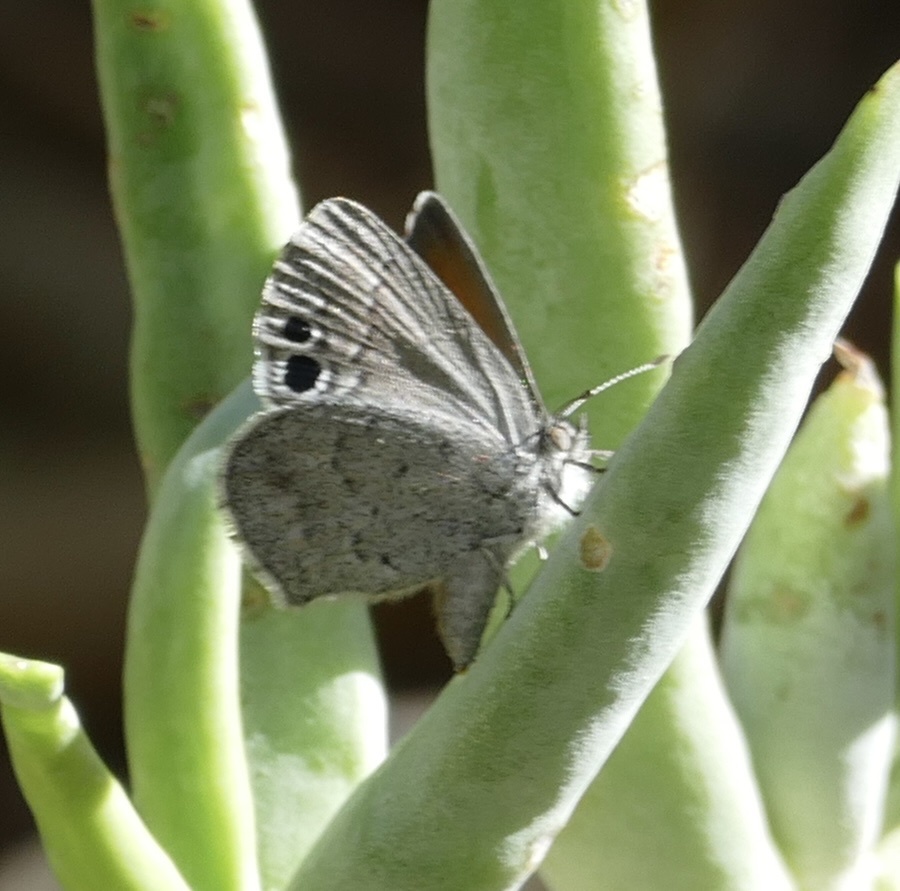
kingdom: Animalia
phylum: Arthropoda
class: Insecta
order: Lepidoptera
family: Lycaenidae
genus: Leptomyrina
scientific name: Leptomyrina lara
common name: Cape black-eye
